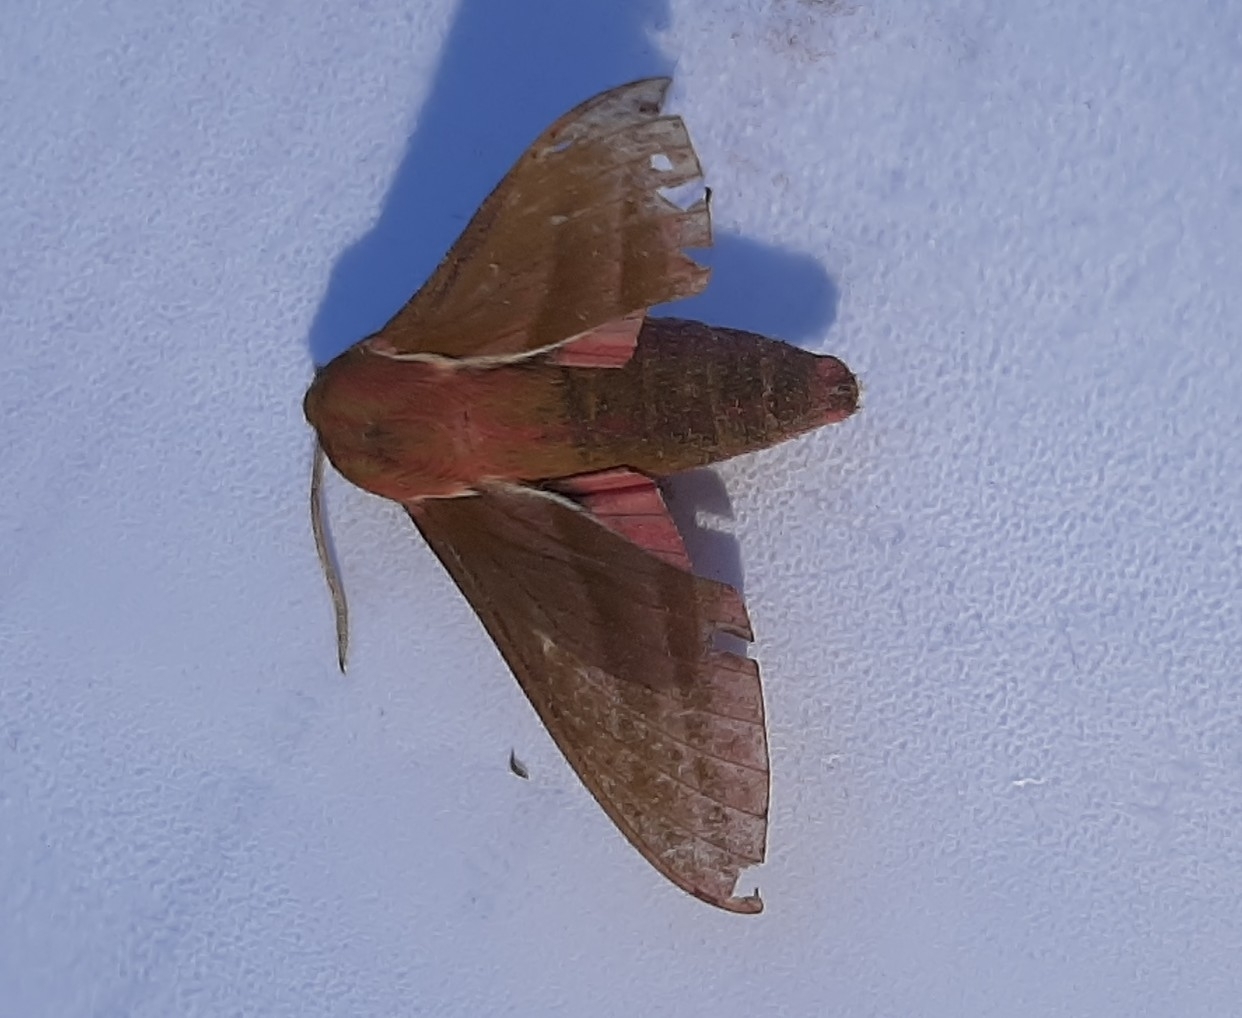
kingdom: Animalia
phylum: Arthropoda
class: Insecta
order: Lepidoptera
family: Sphingidae
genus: Deilephila
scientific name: Deilephila elpenor
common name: Elephant hawk-moth
